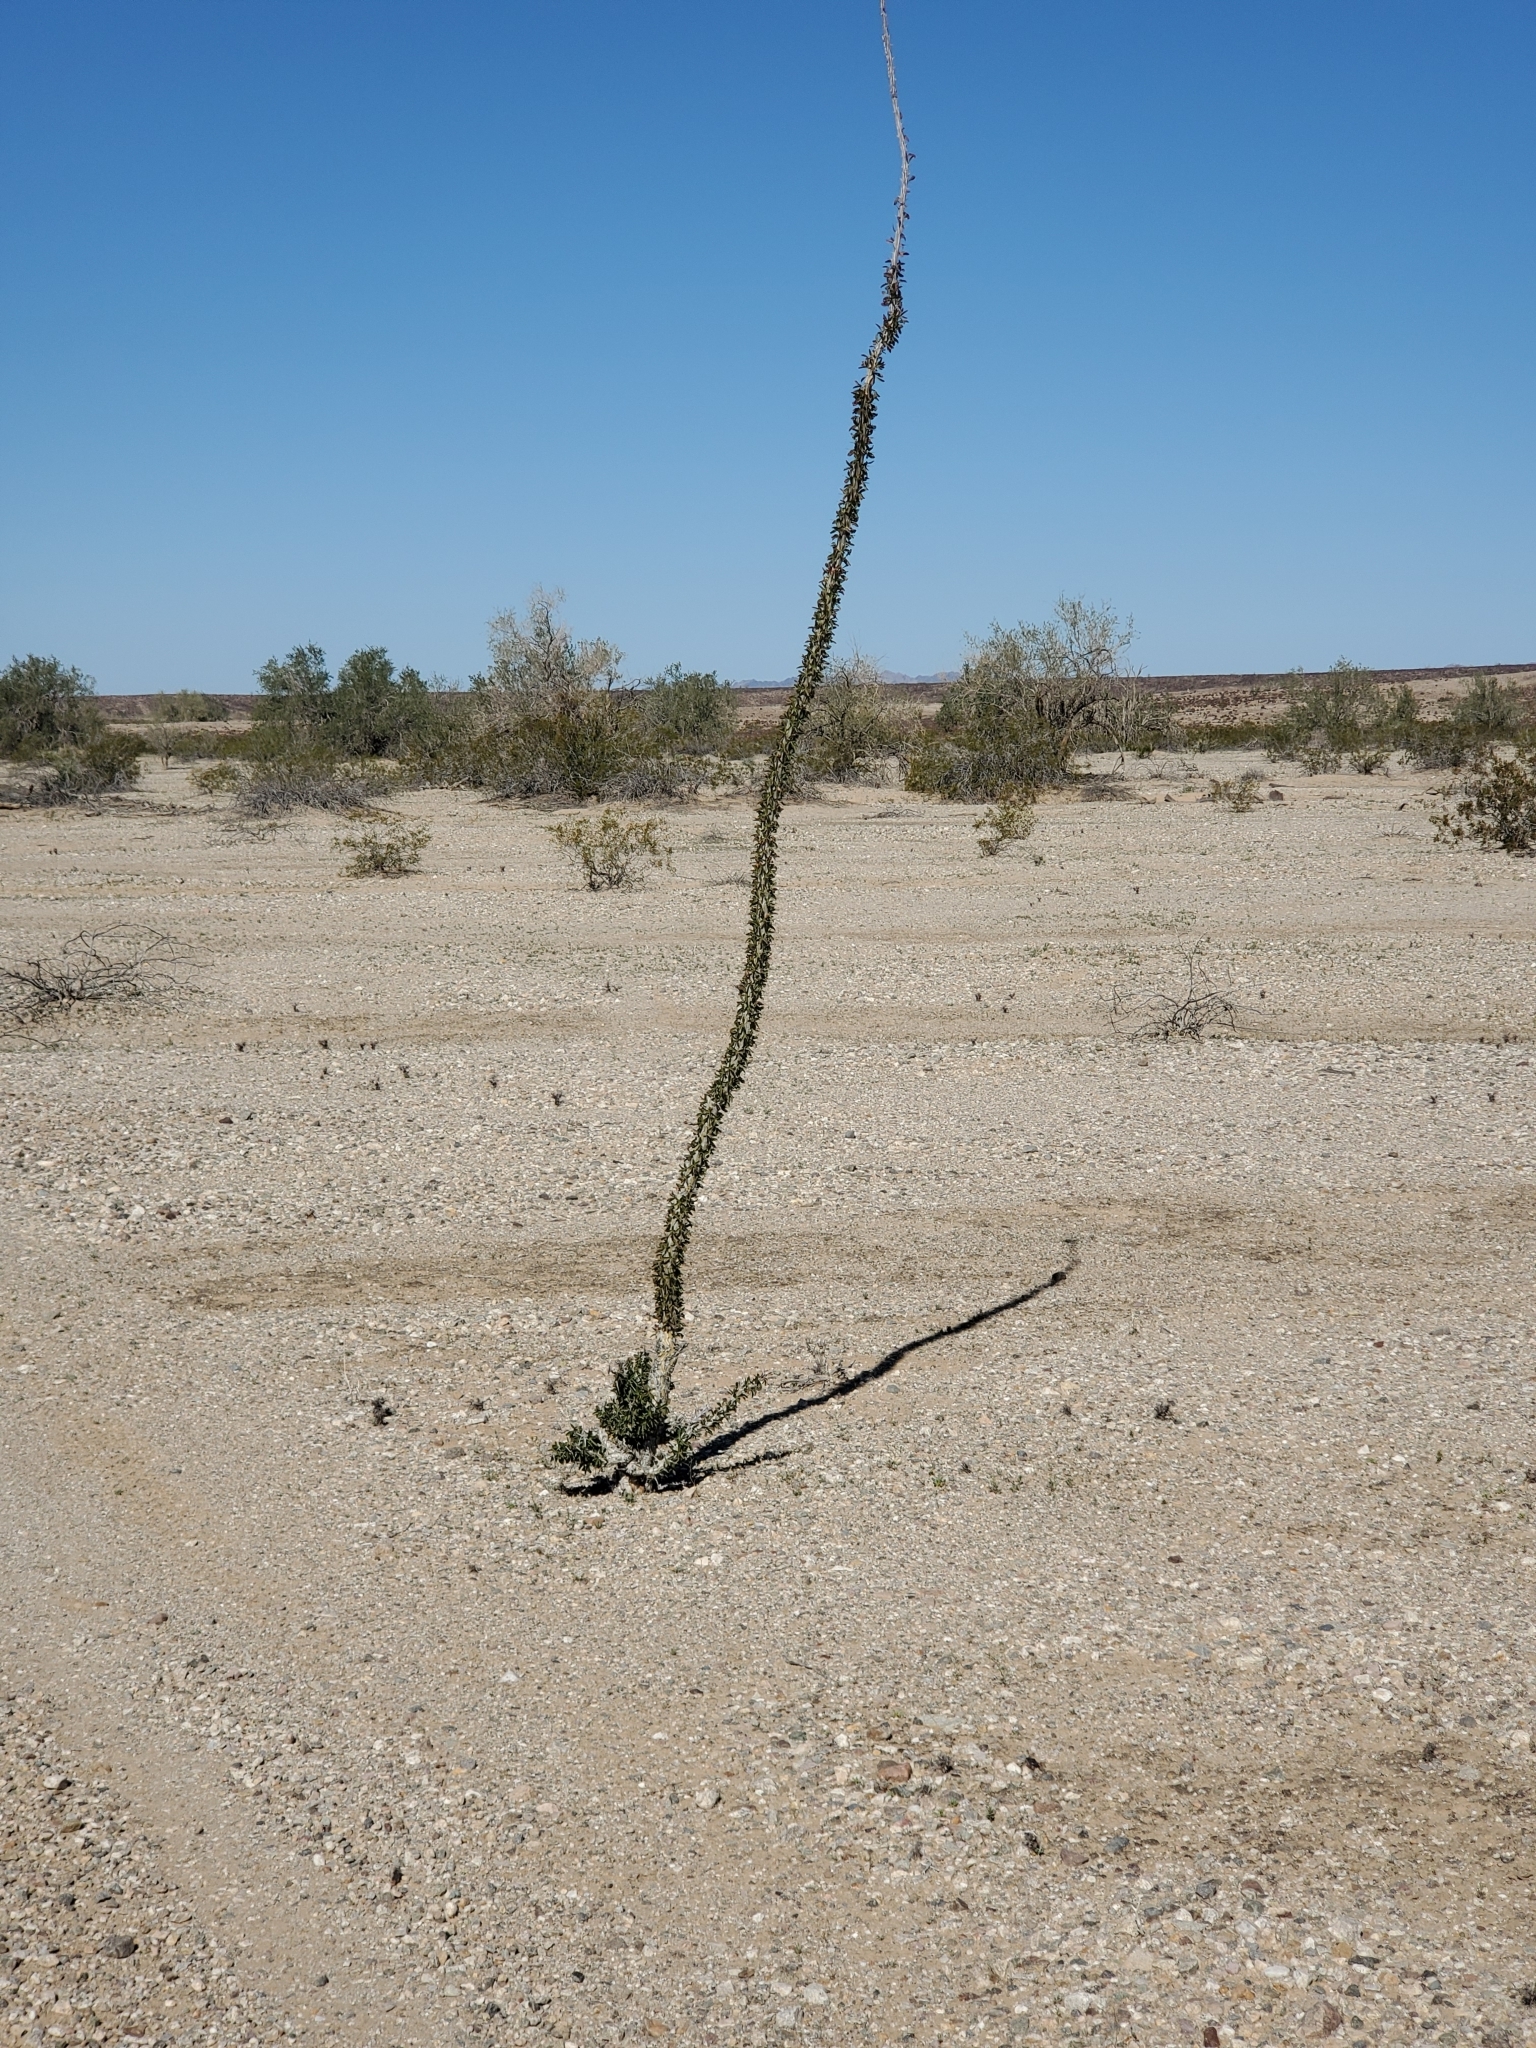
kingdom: Plantae
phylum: Tracheophyta
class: Magnoliopsida
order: Ericales
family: Fouquieriaceae
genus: Fouquieria
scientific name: Fouquieria splendens
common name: Vine-cactus
